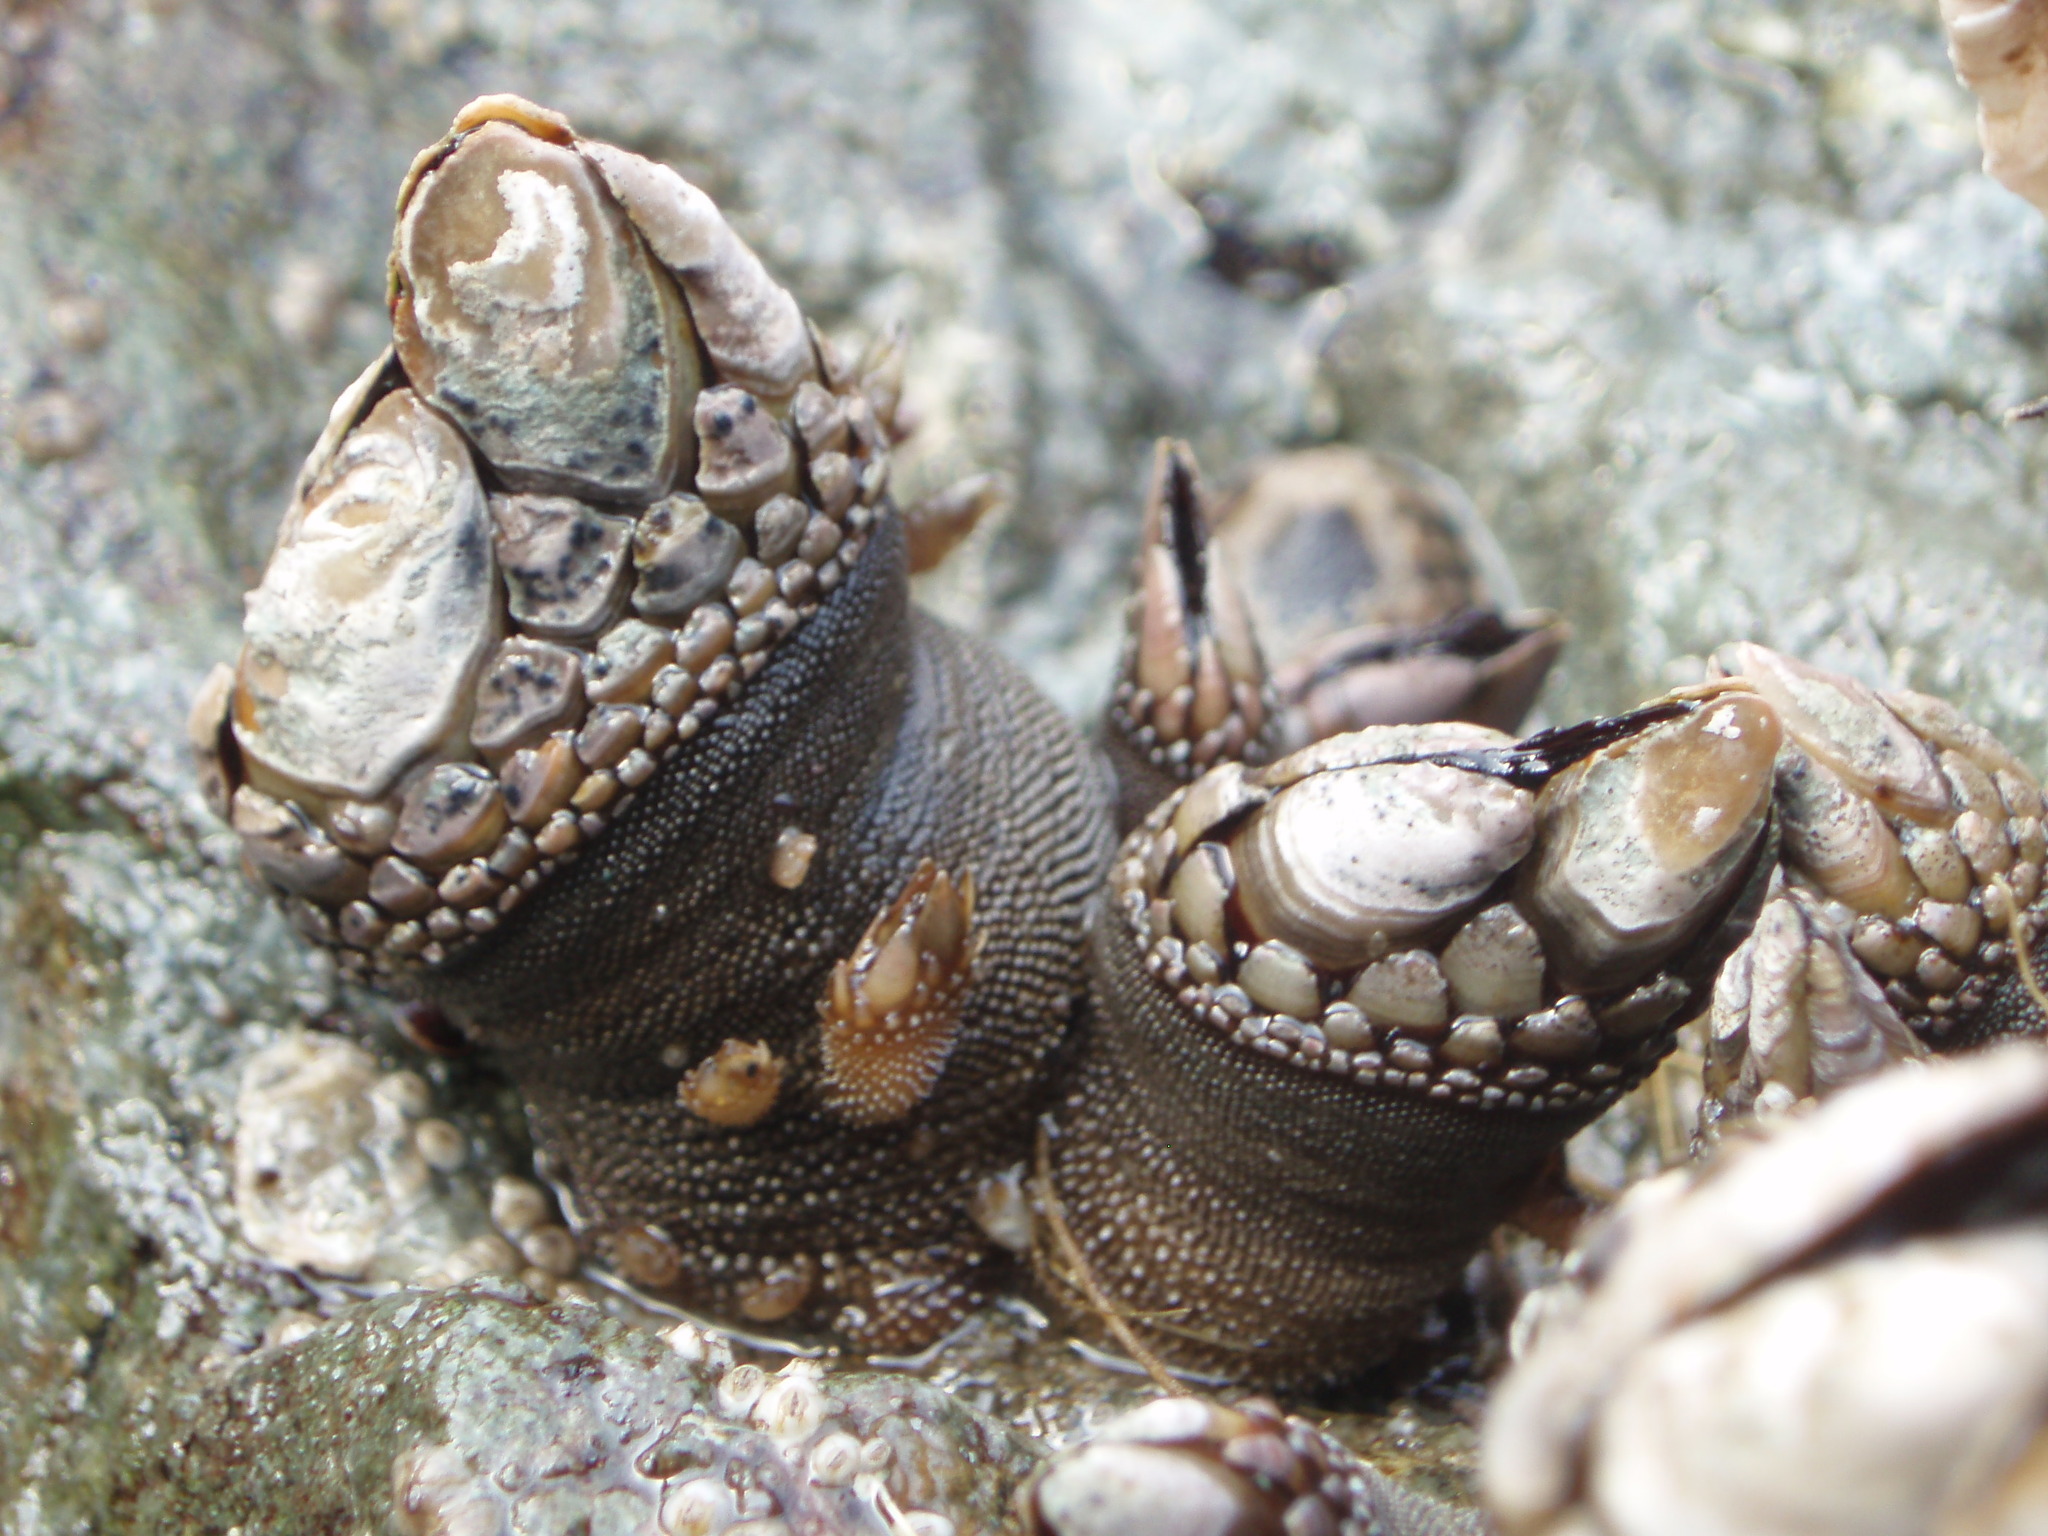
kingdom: Animalia
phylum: Arthropoda
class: Maxillopoda
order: Pedunculata
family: Pollicipedidae
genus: Pollicipes
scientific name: Pollicipes polymerus
